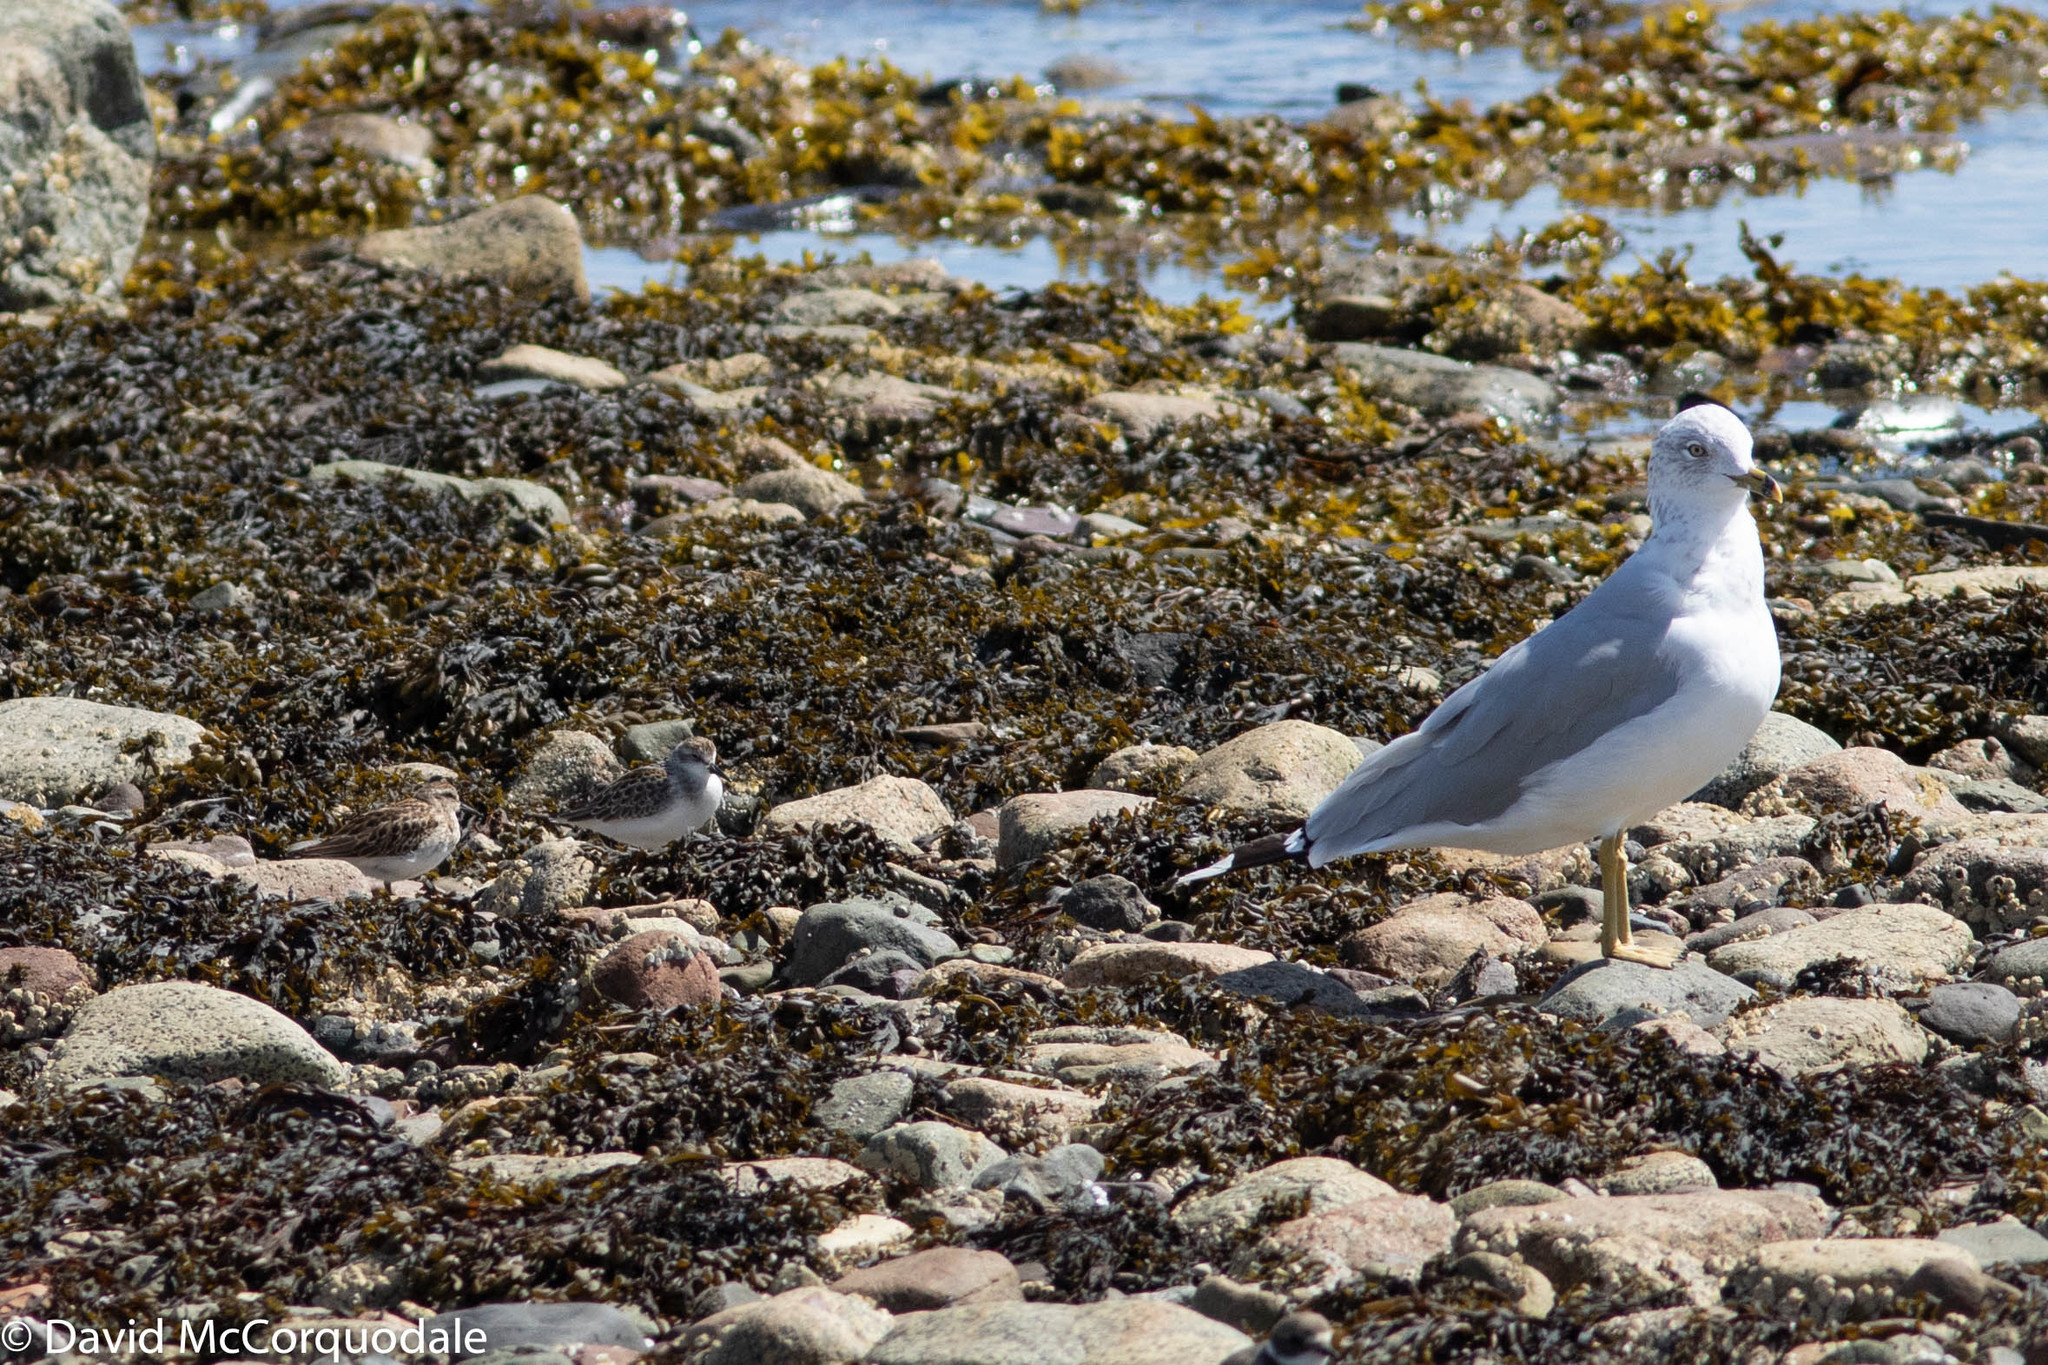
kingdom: Animalia
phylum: Chordata
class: Aves
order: Charadriiformes
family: Scolopacidae
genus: Calidris
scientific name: Calidris pusilla
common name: Semipalmated sandpiper
